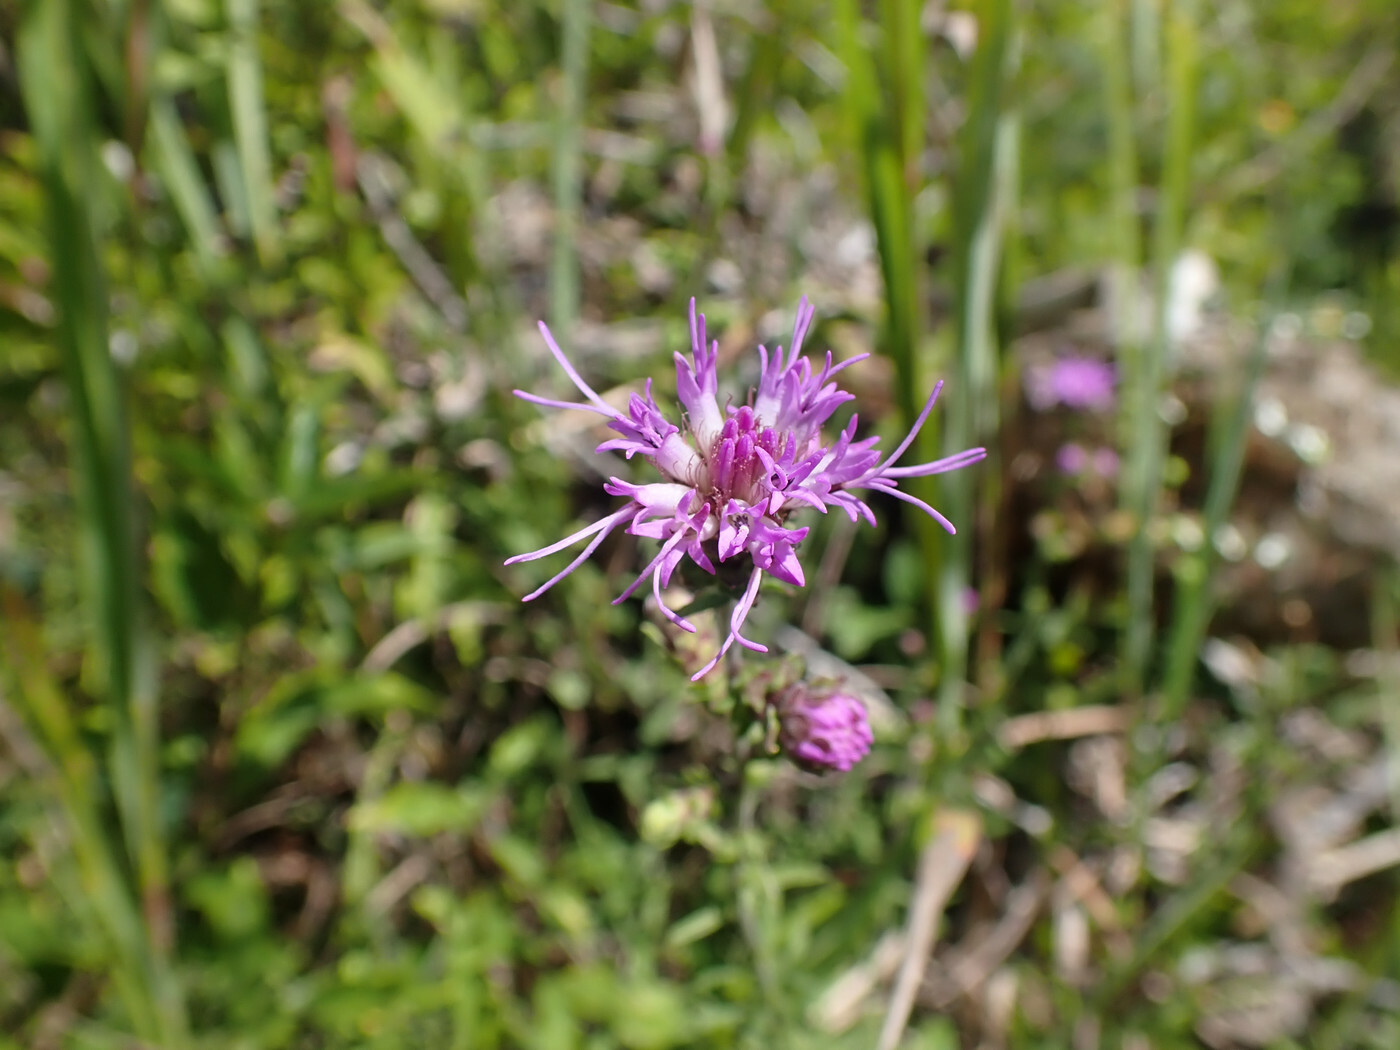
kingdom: Plantae
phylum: Tracheophyta
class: Magnoliopsida
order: Asterales
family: Asteraceae
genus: Liatris
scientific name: Liatris squarrulosa
